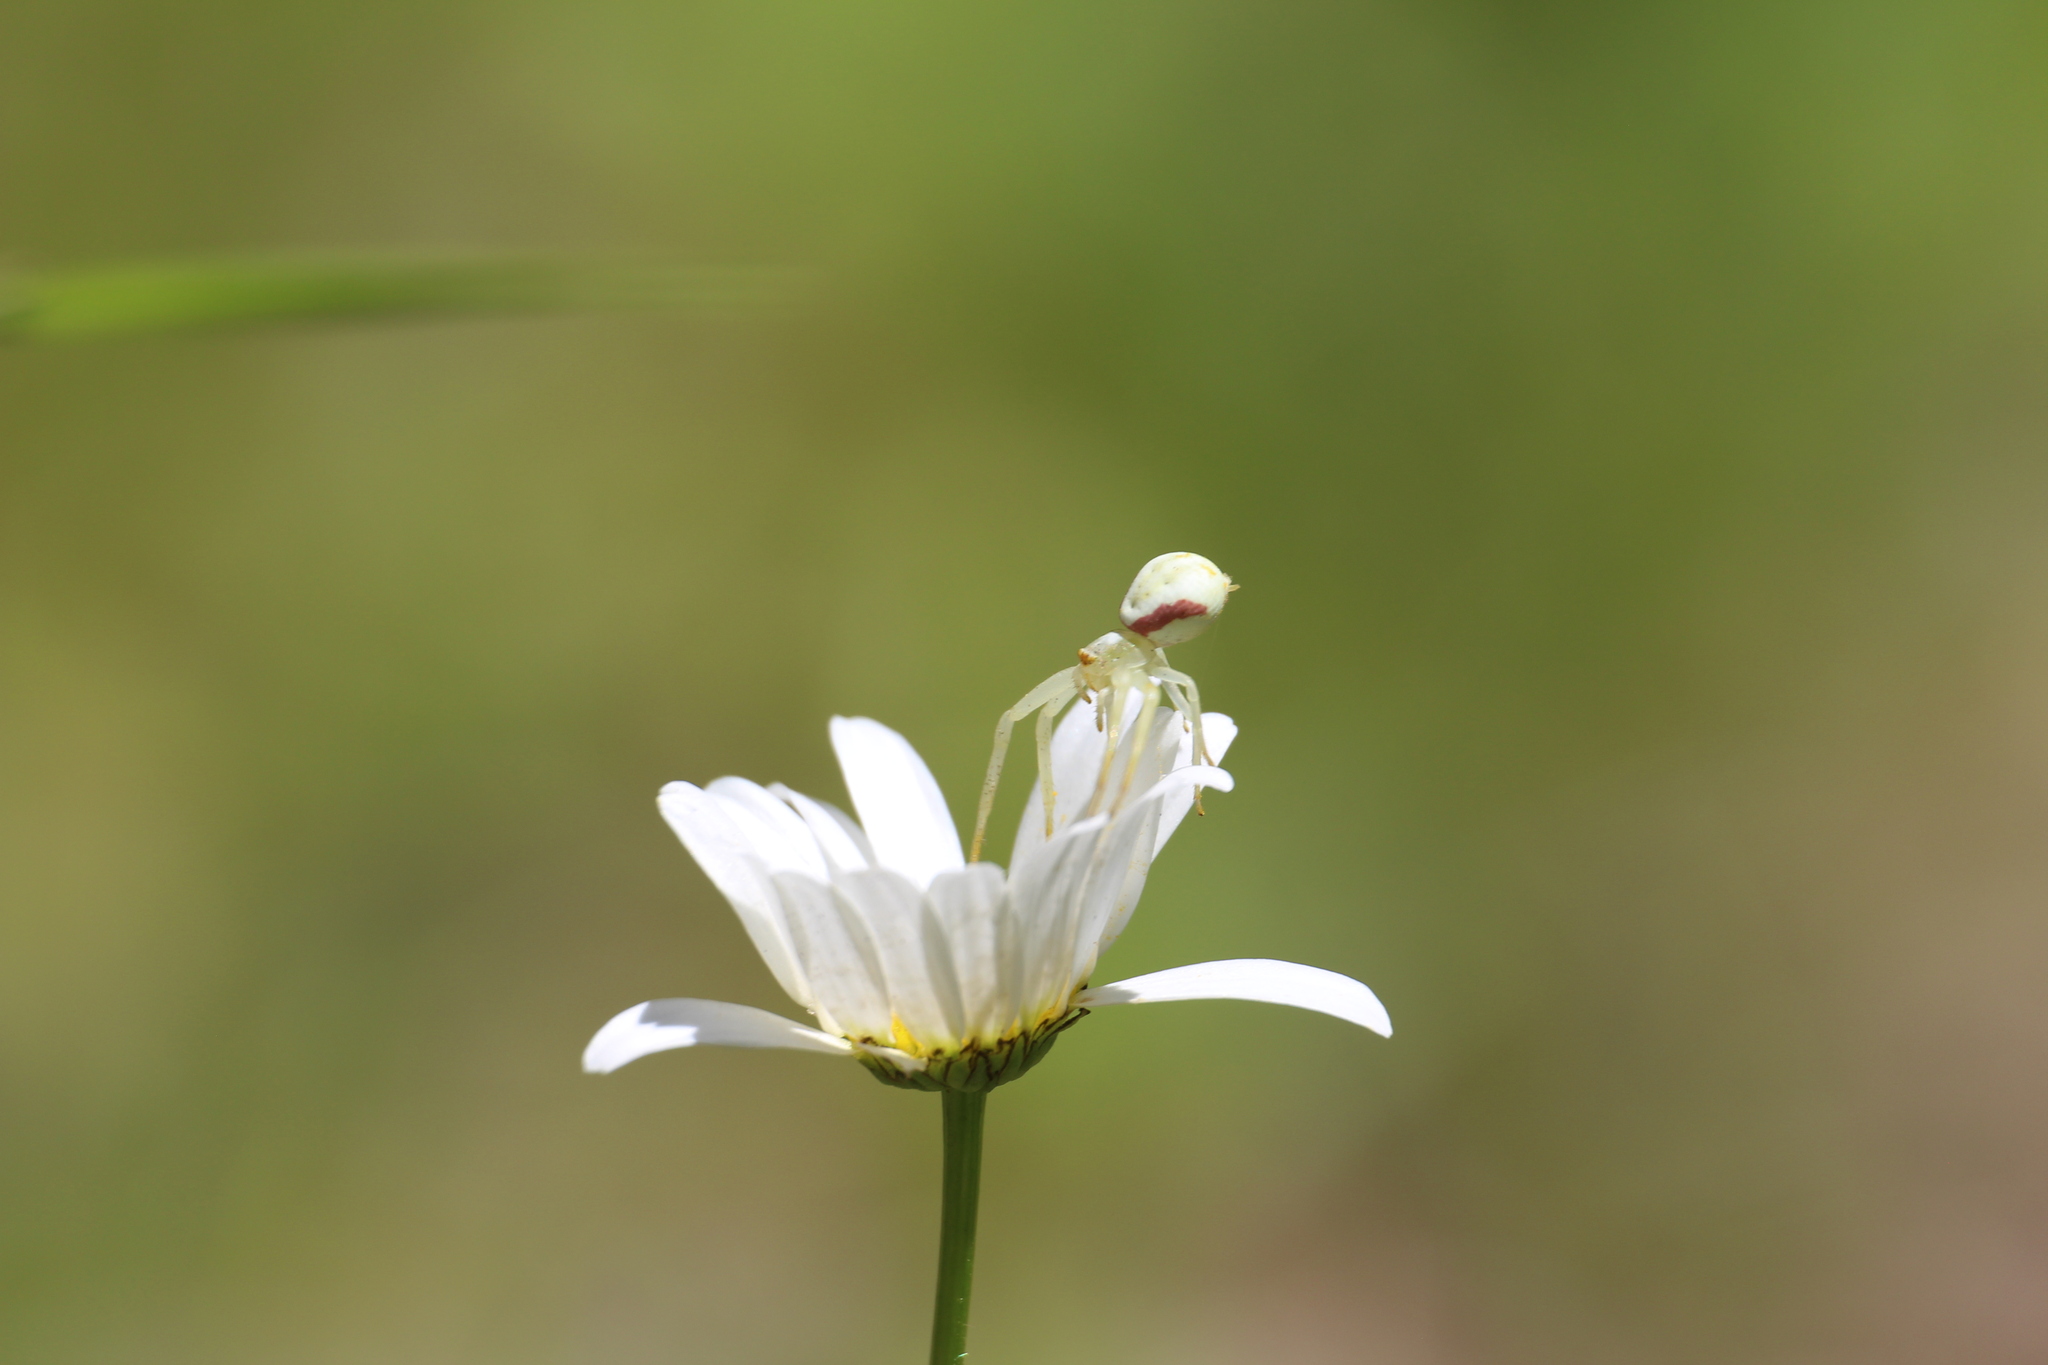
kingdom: Animalia
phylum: Arthropoda
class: Arachnida
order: Araneae
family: Thomisidae
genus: Misumena
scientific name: Misumena vatia
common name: Goldenrod crab spider
